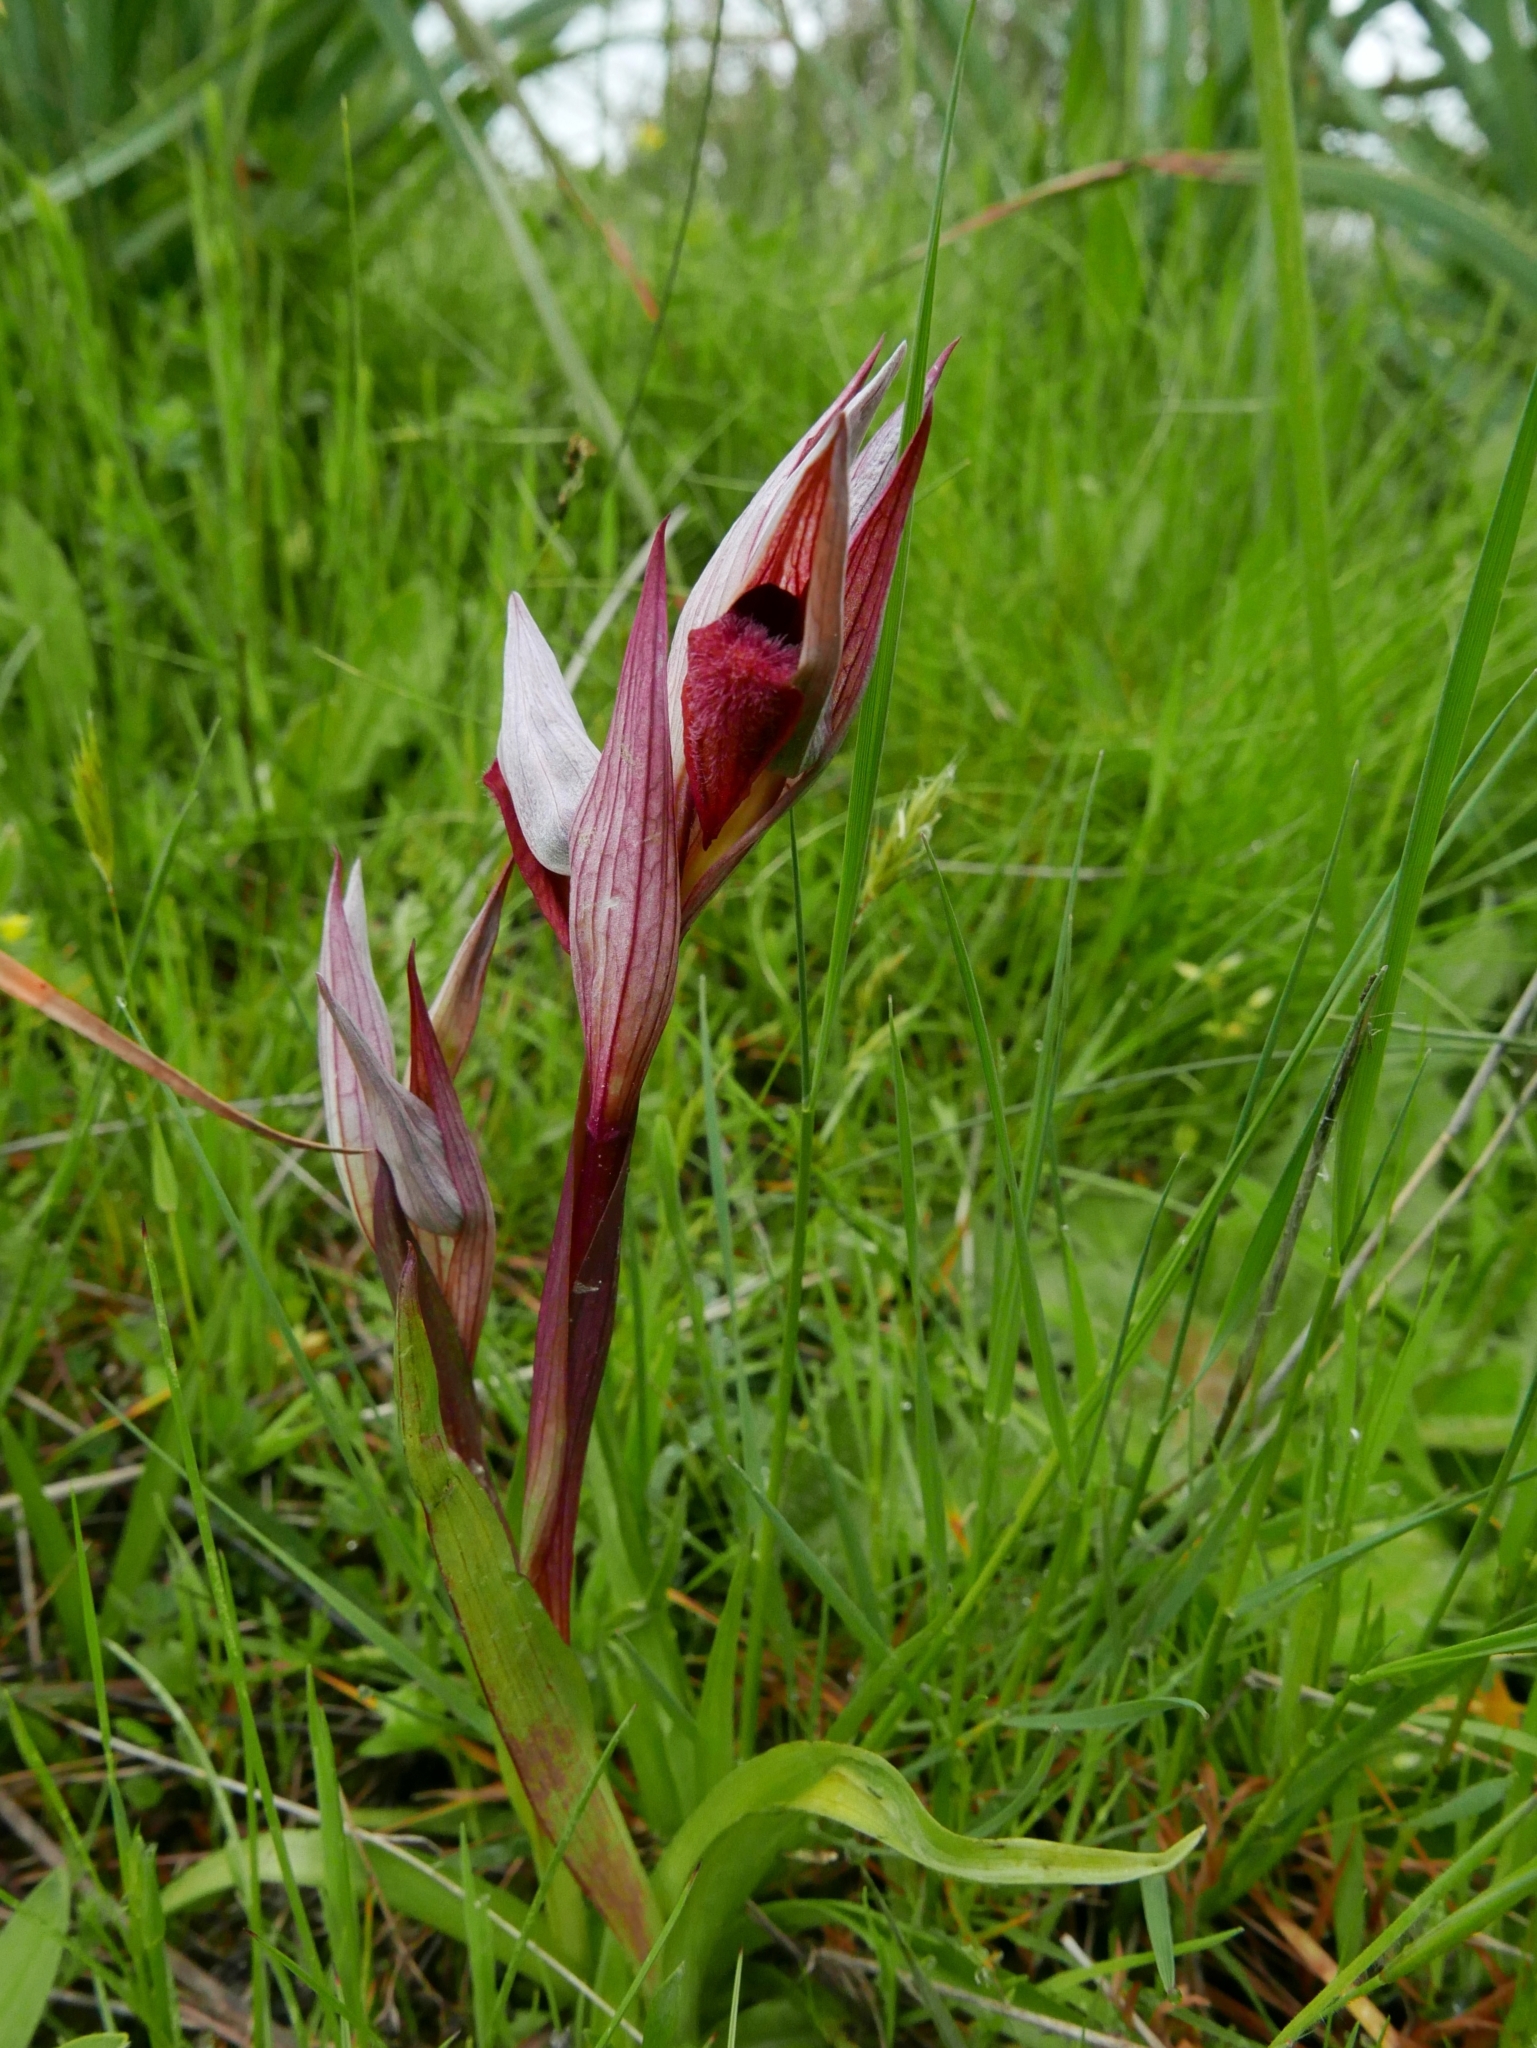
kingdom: Plantae
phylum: Tracheophyta
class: Liliopsida
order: Asparagales
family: Orchidaceae
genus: Serapias
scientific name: Serapias vomeracea
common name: Long-lipped tongue-orchid
